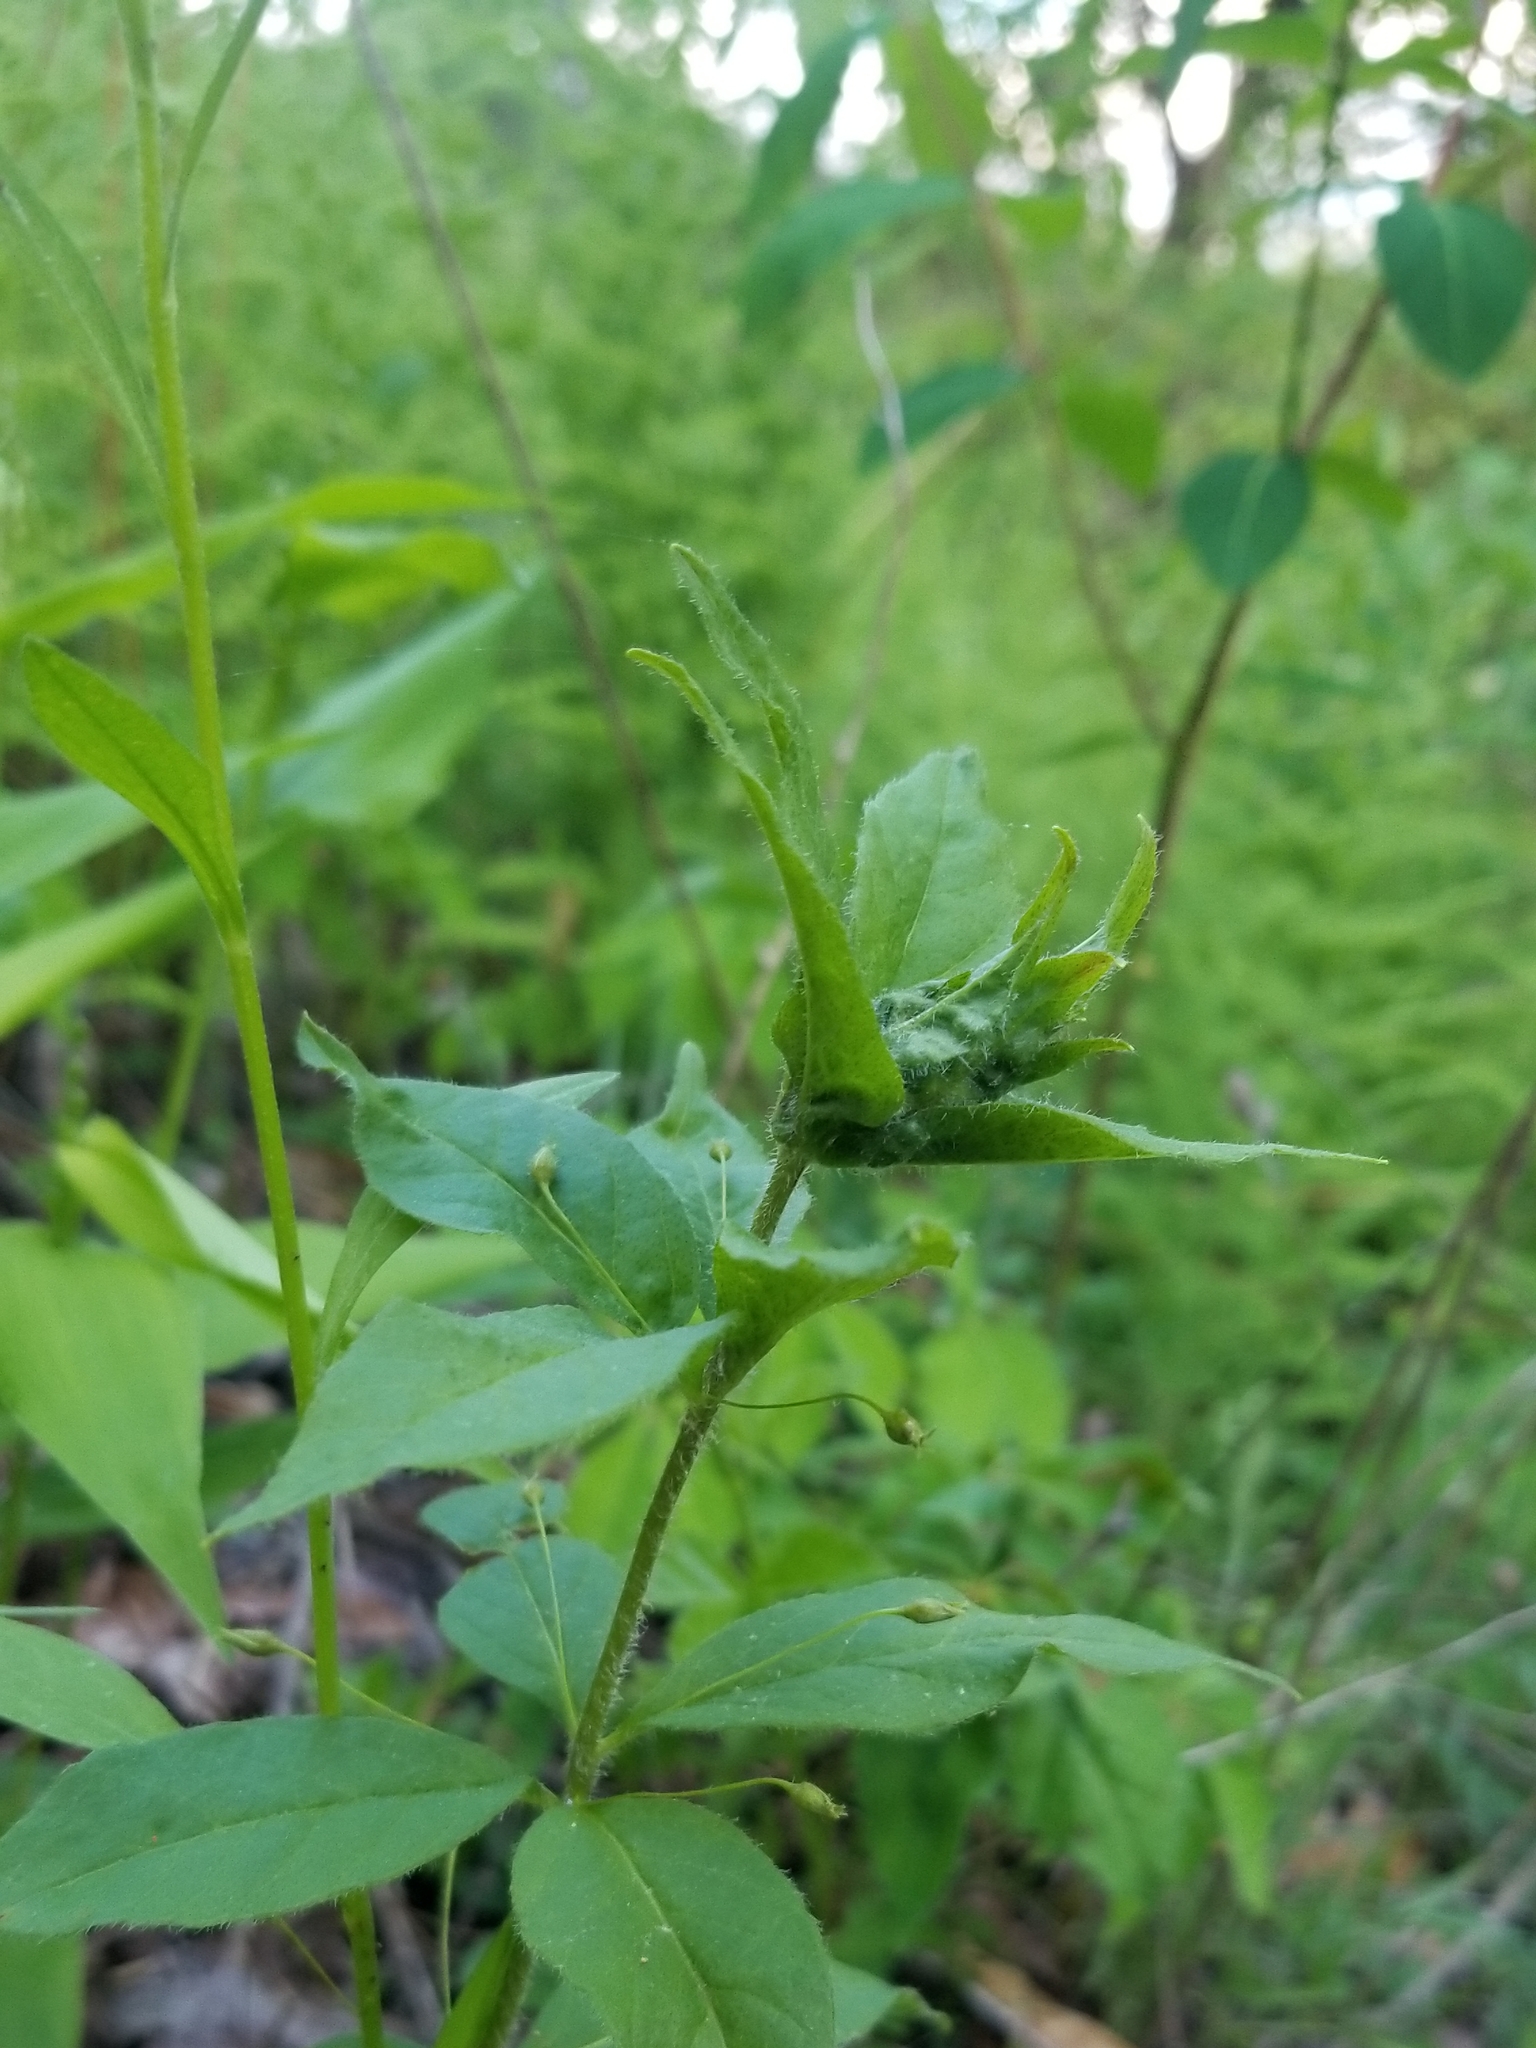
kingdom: Plantae
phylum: Tracheophyta
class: Magnoliopsida
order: Ericales
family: Primulaceae
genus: Lysimachia
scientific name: Lysimachia quadrifolia
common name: Whorled loosestrife
